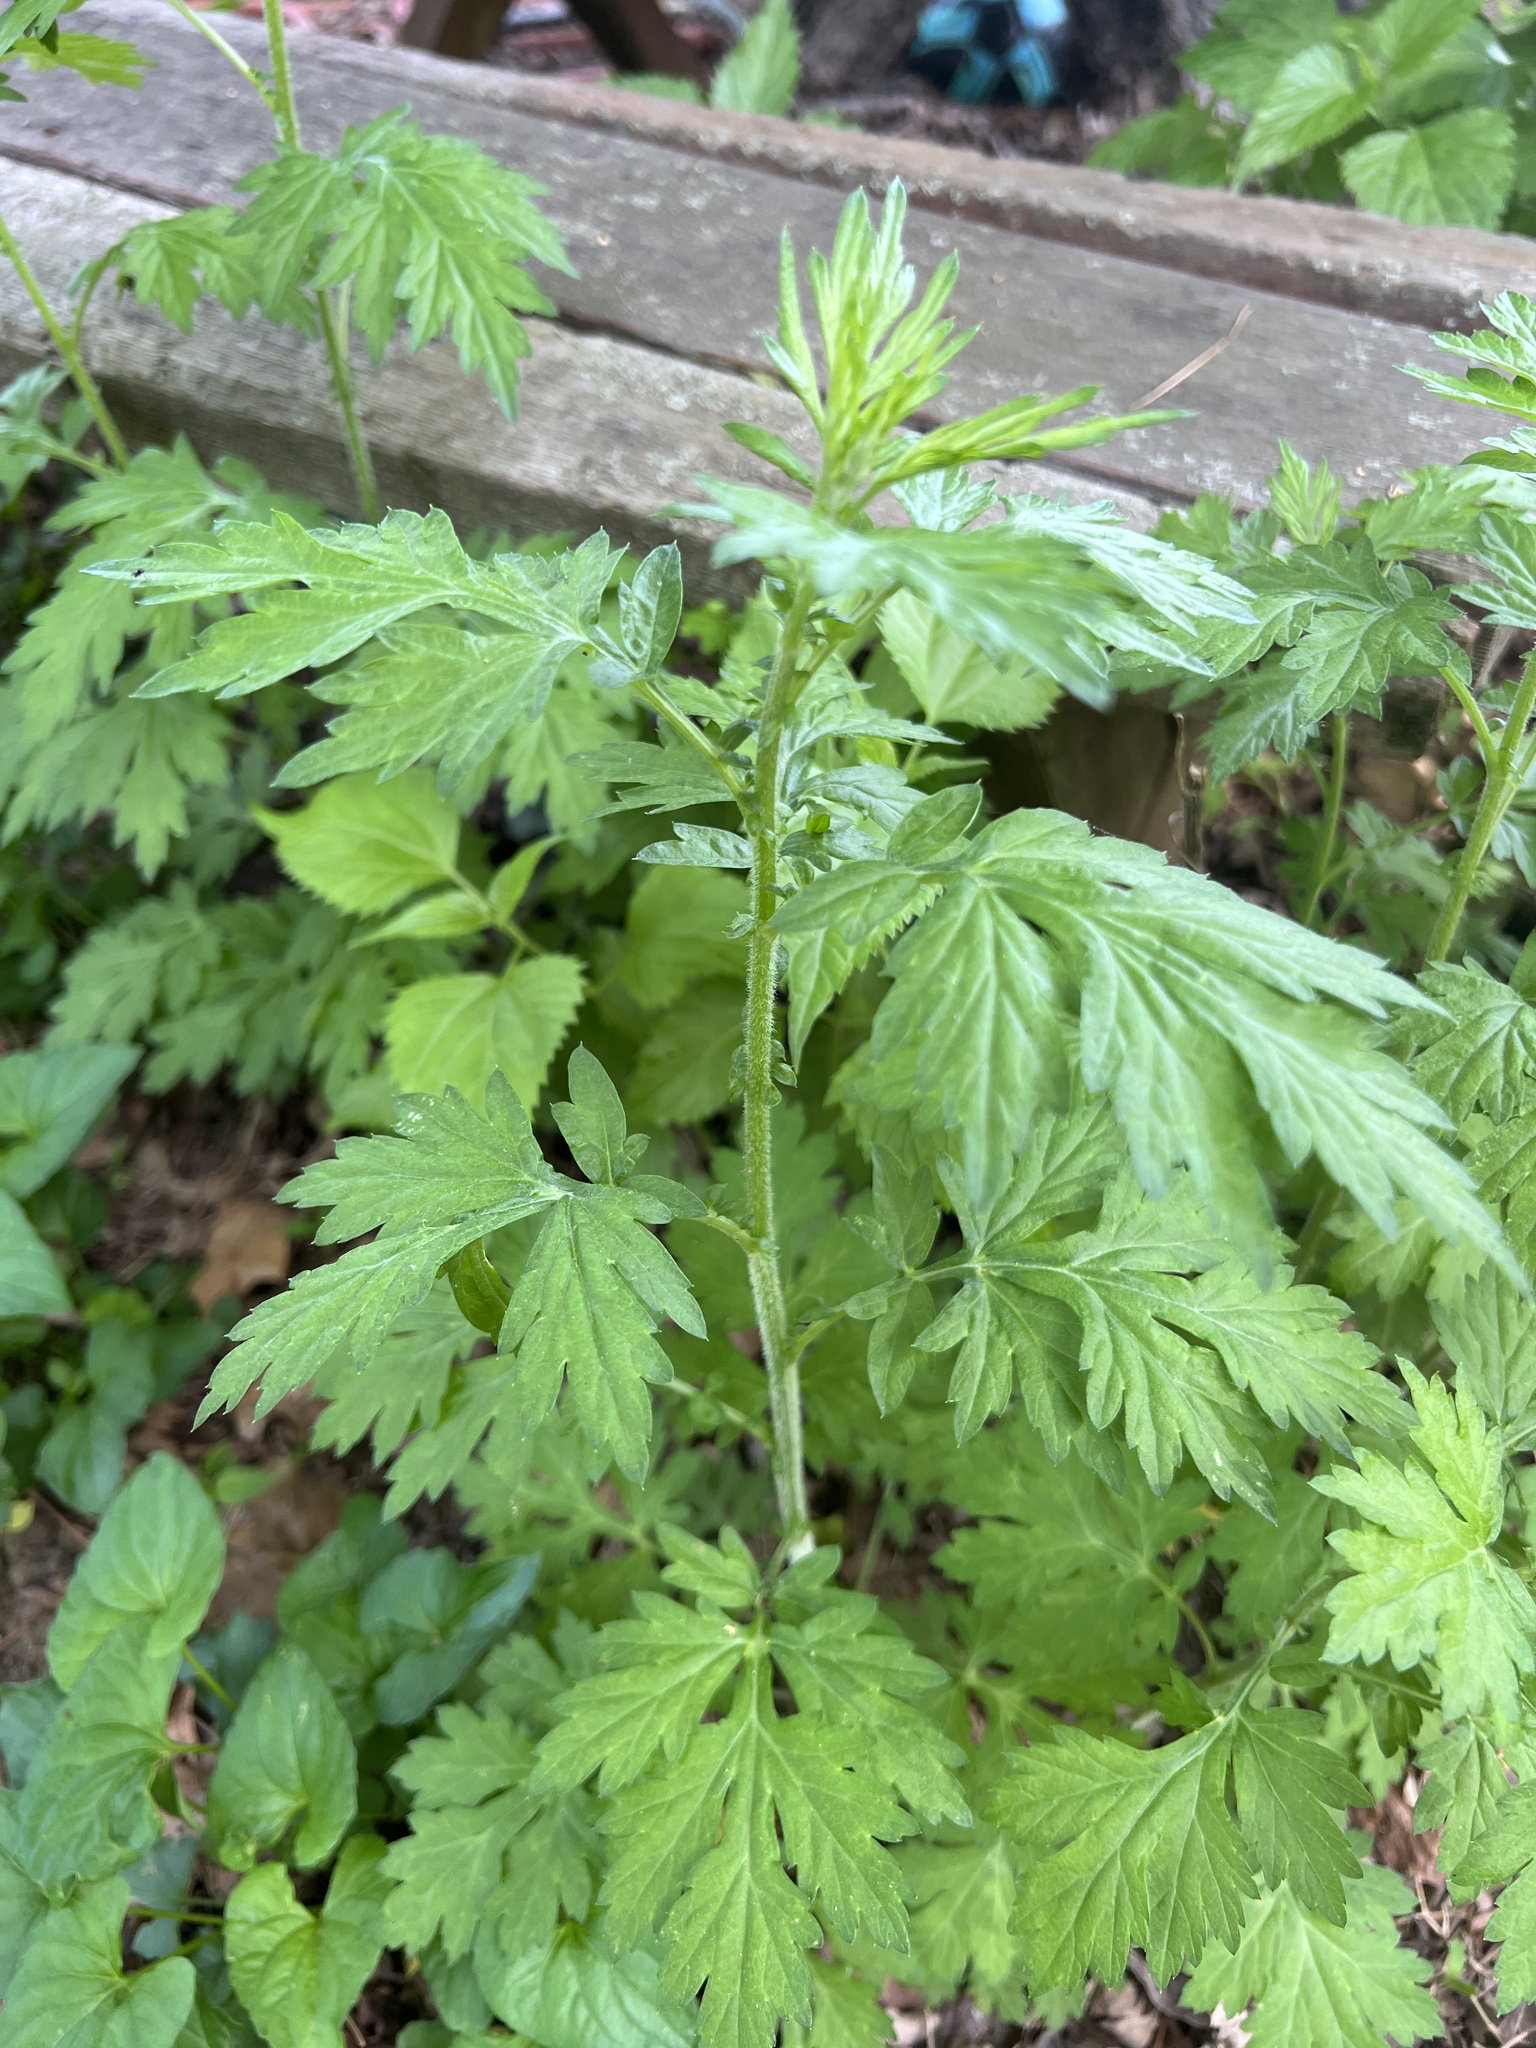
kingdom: Plantae
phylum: Tracheophyta
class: Magnoliopsida
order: Asterales
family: Asteraceae
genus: Artemisia
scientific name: Artemisia vulgaris
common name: Mugwort
